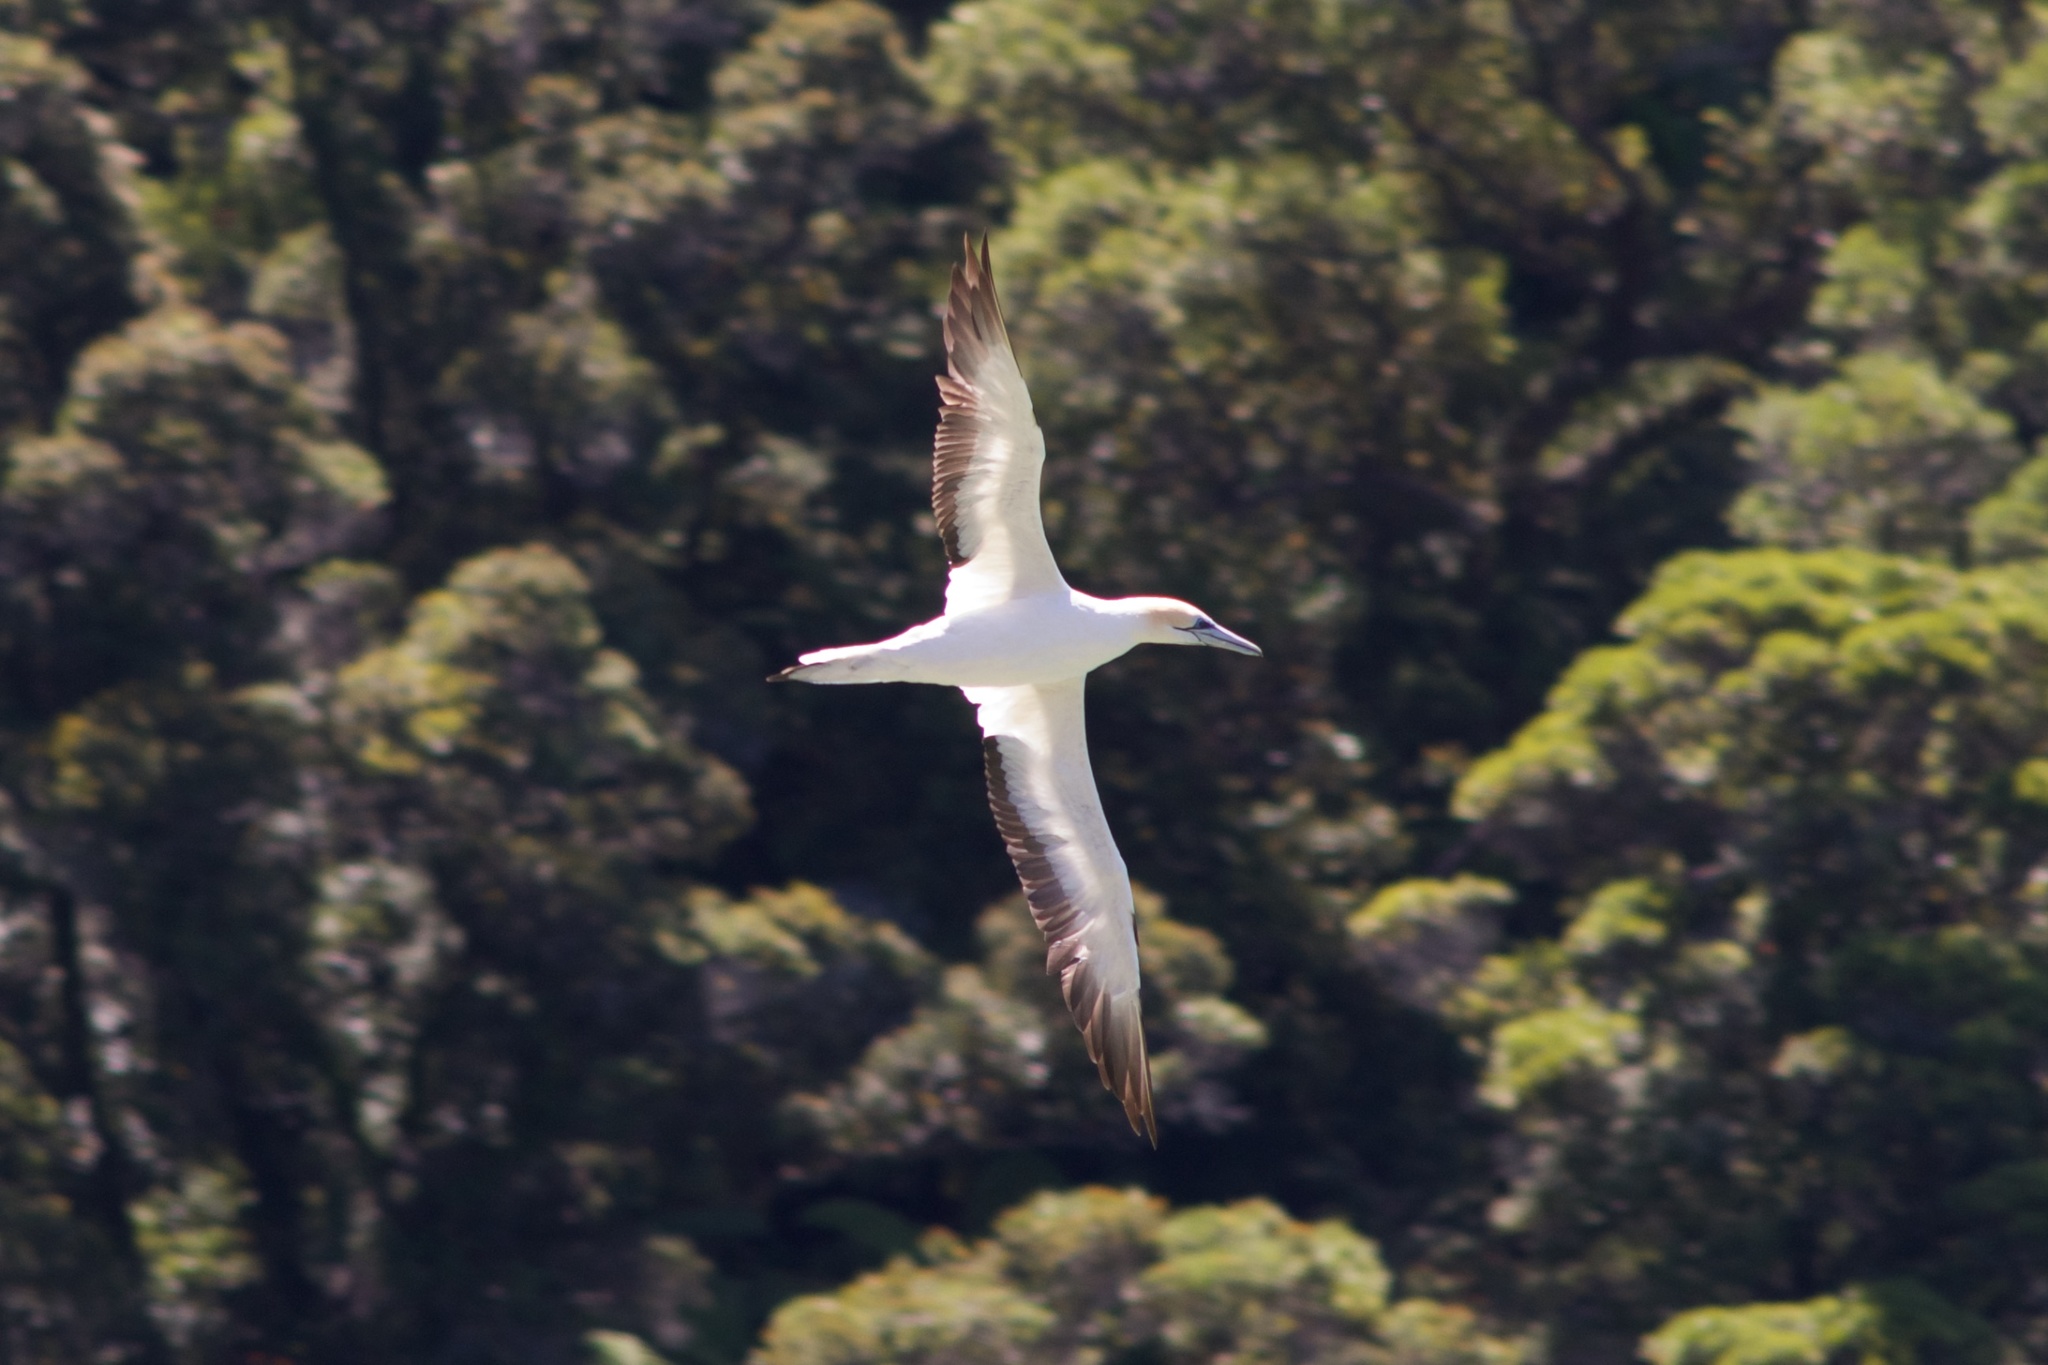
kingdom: Animalia
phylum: Chordata
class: Aves
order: Suliformes
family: Sulidae
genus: Morus
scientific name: Morus serrator
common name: Australasian gannet
